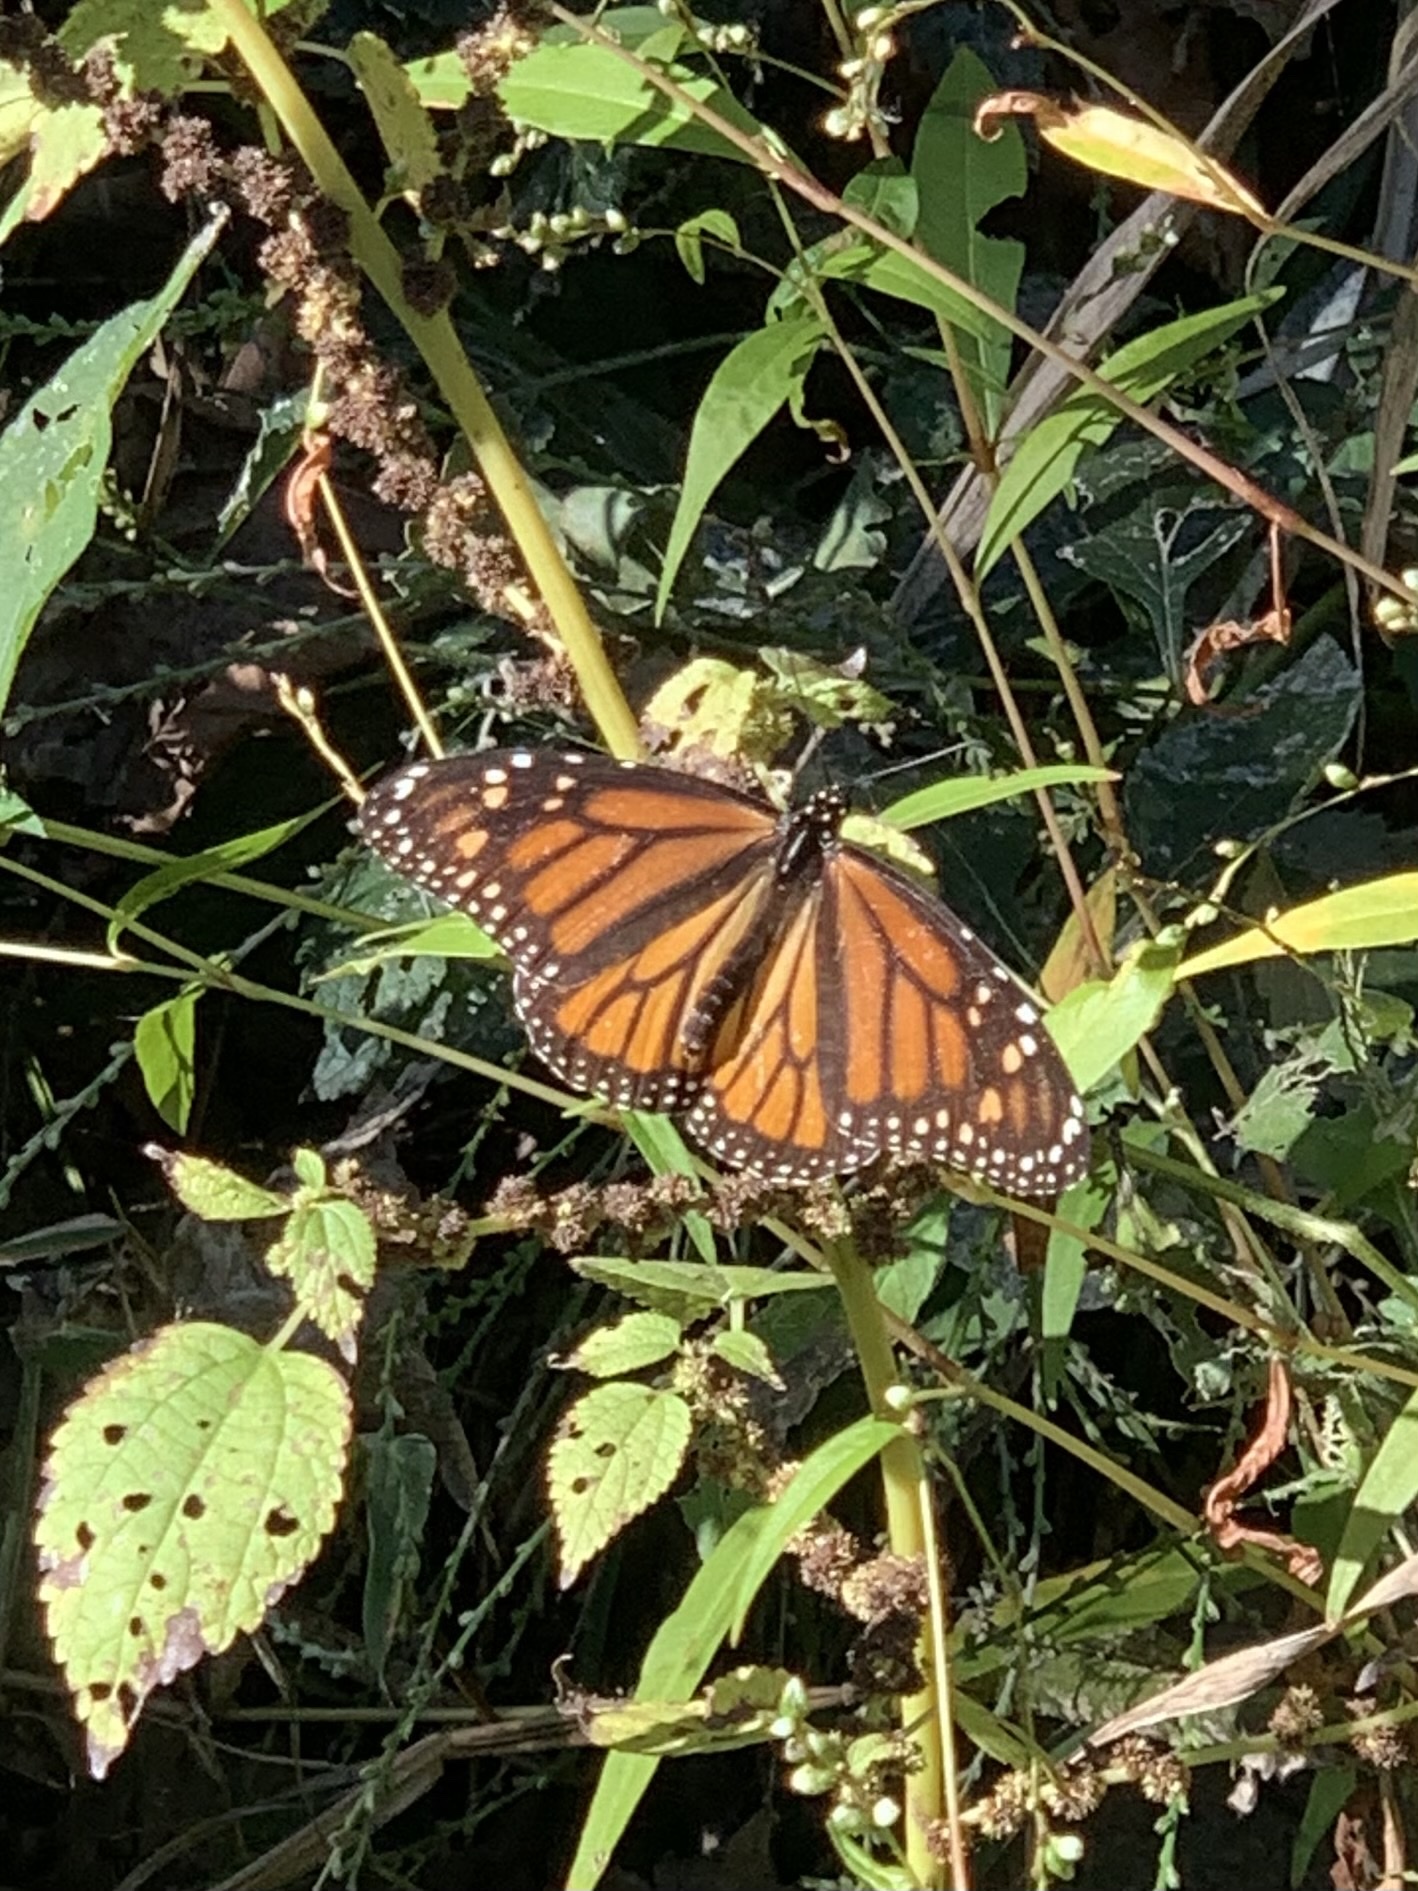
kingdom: Animalia
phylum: Arthropoda
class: Insecta
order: Lepidoptera
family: Nymphalidae
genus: Danaus
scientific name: Danaus plexippus
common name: Monarch
